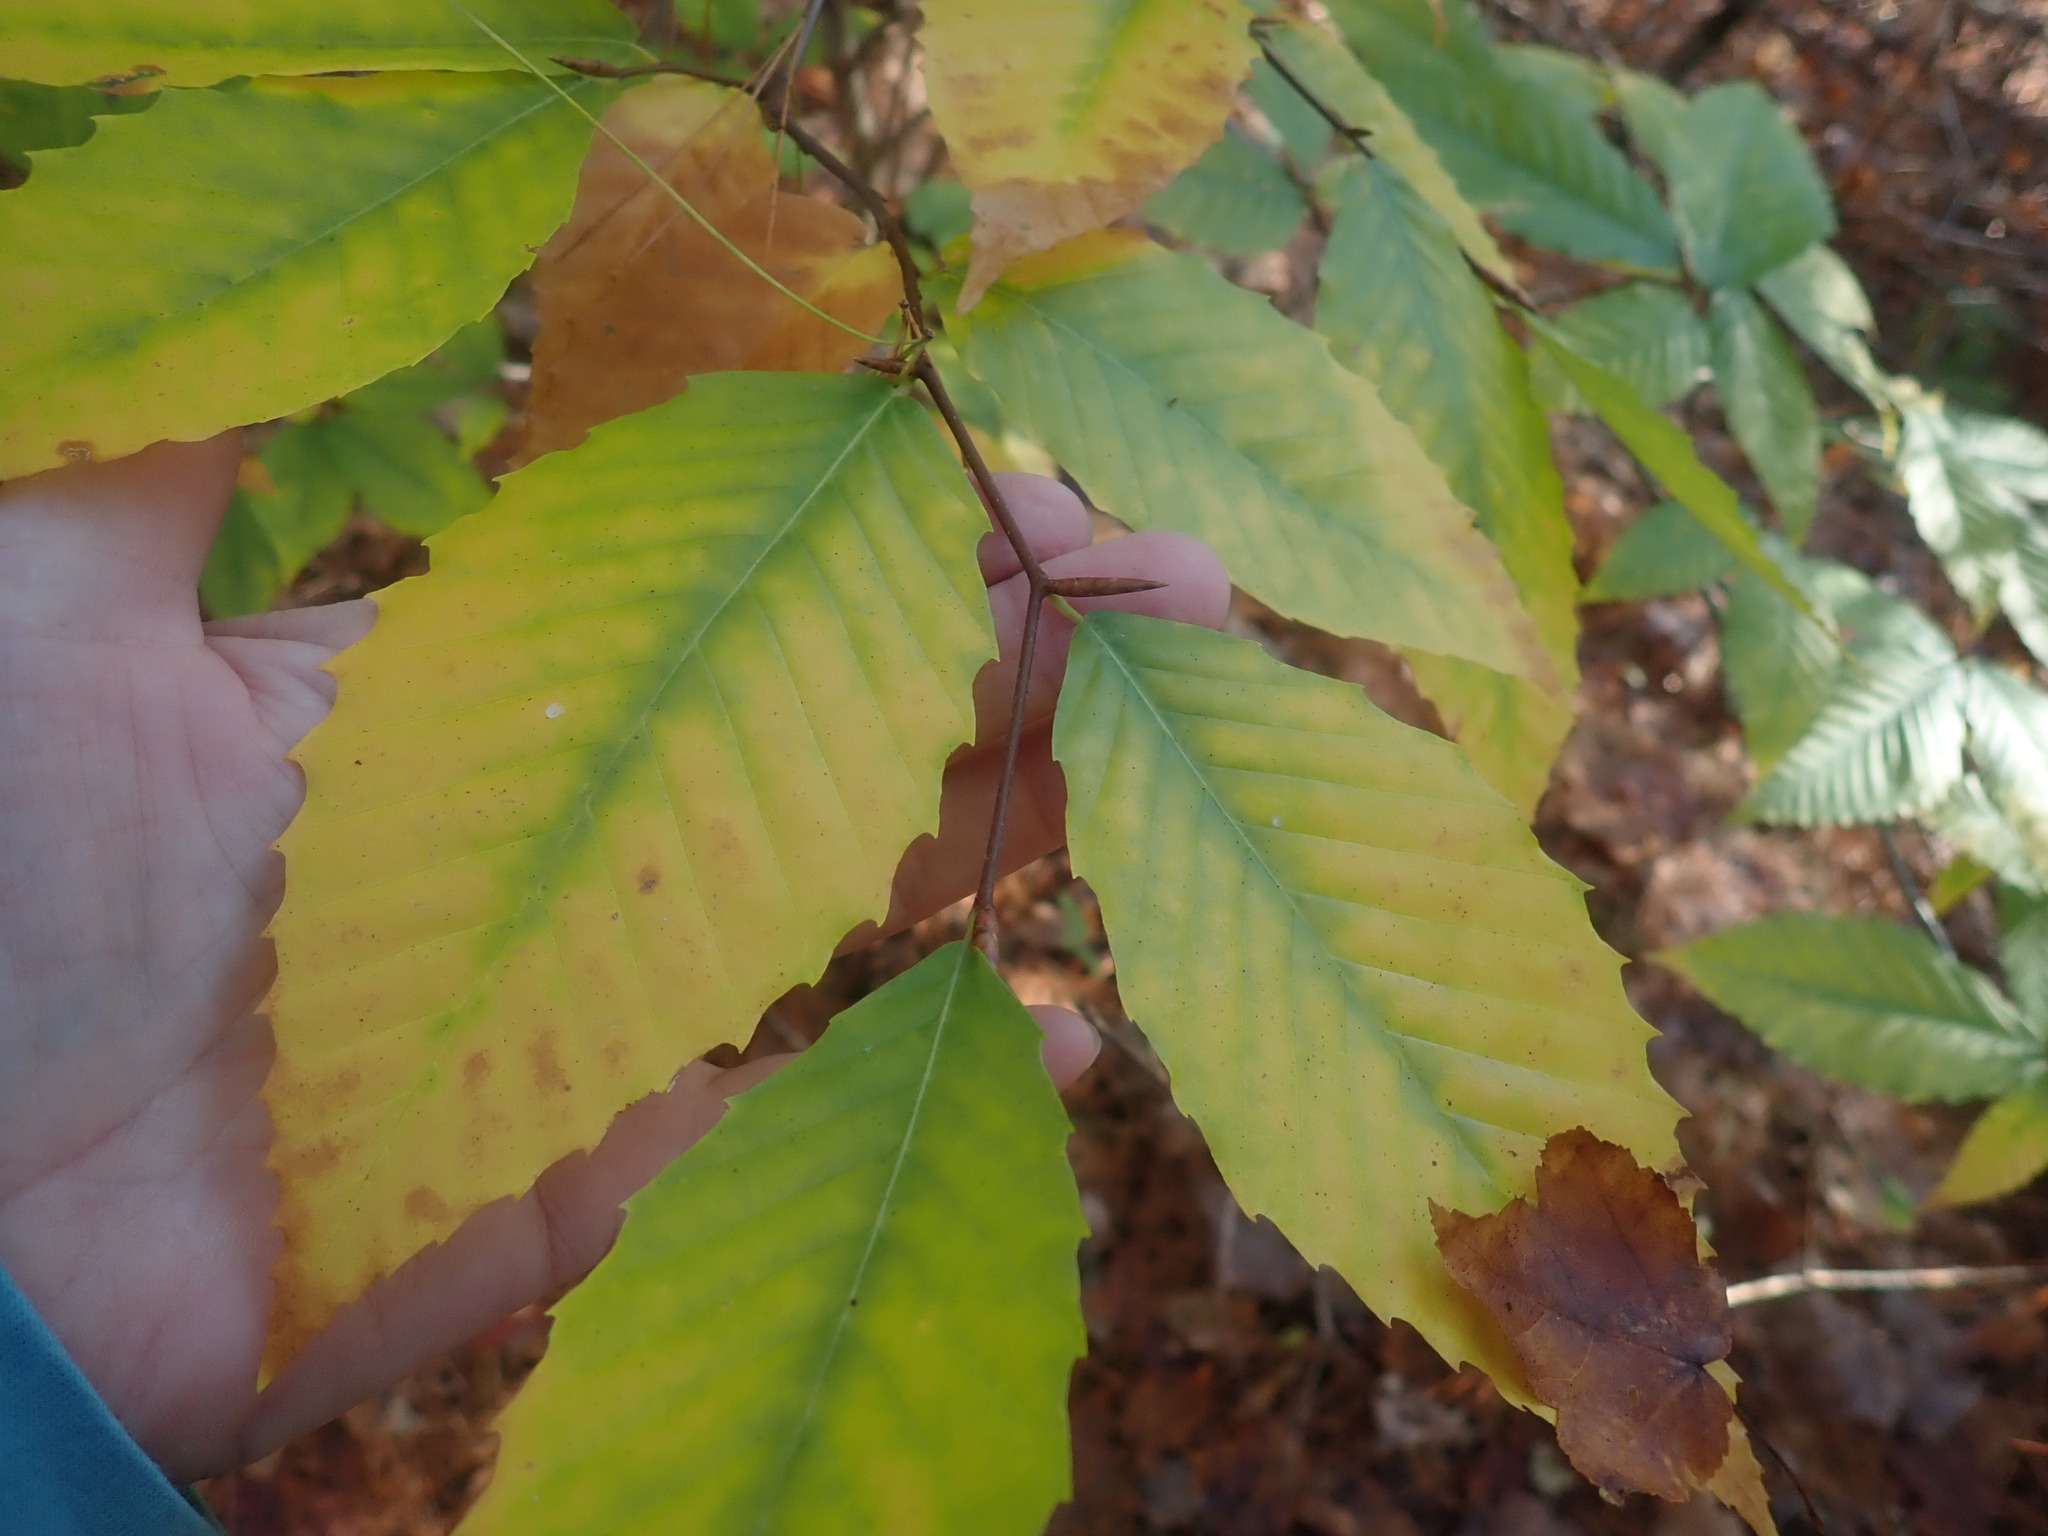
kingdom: Plantae
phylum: Tracheophyta
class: Magnoliopsida
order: Fagales
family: Fagaceae
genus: Fagus
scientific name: Fagus grandifolia
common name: American beech
